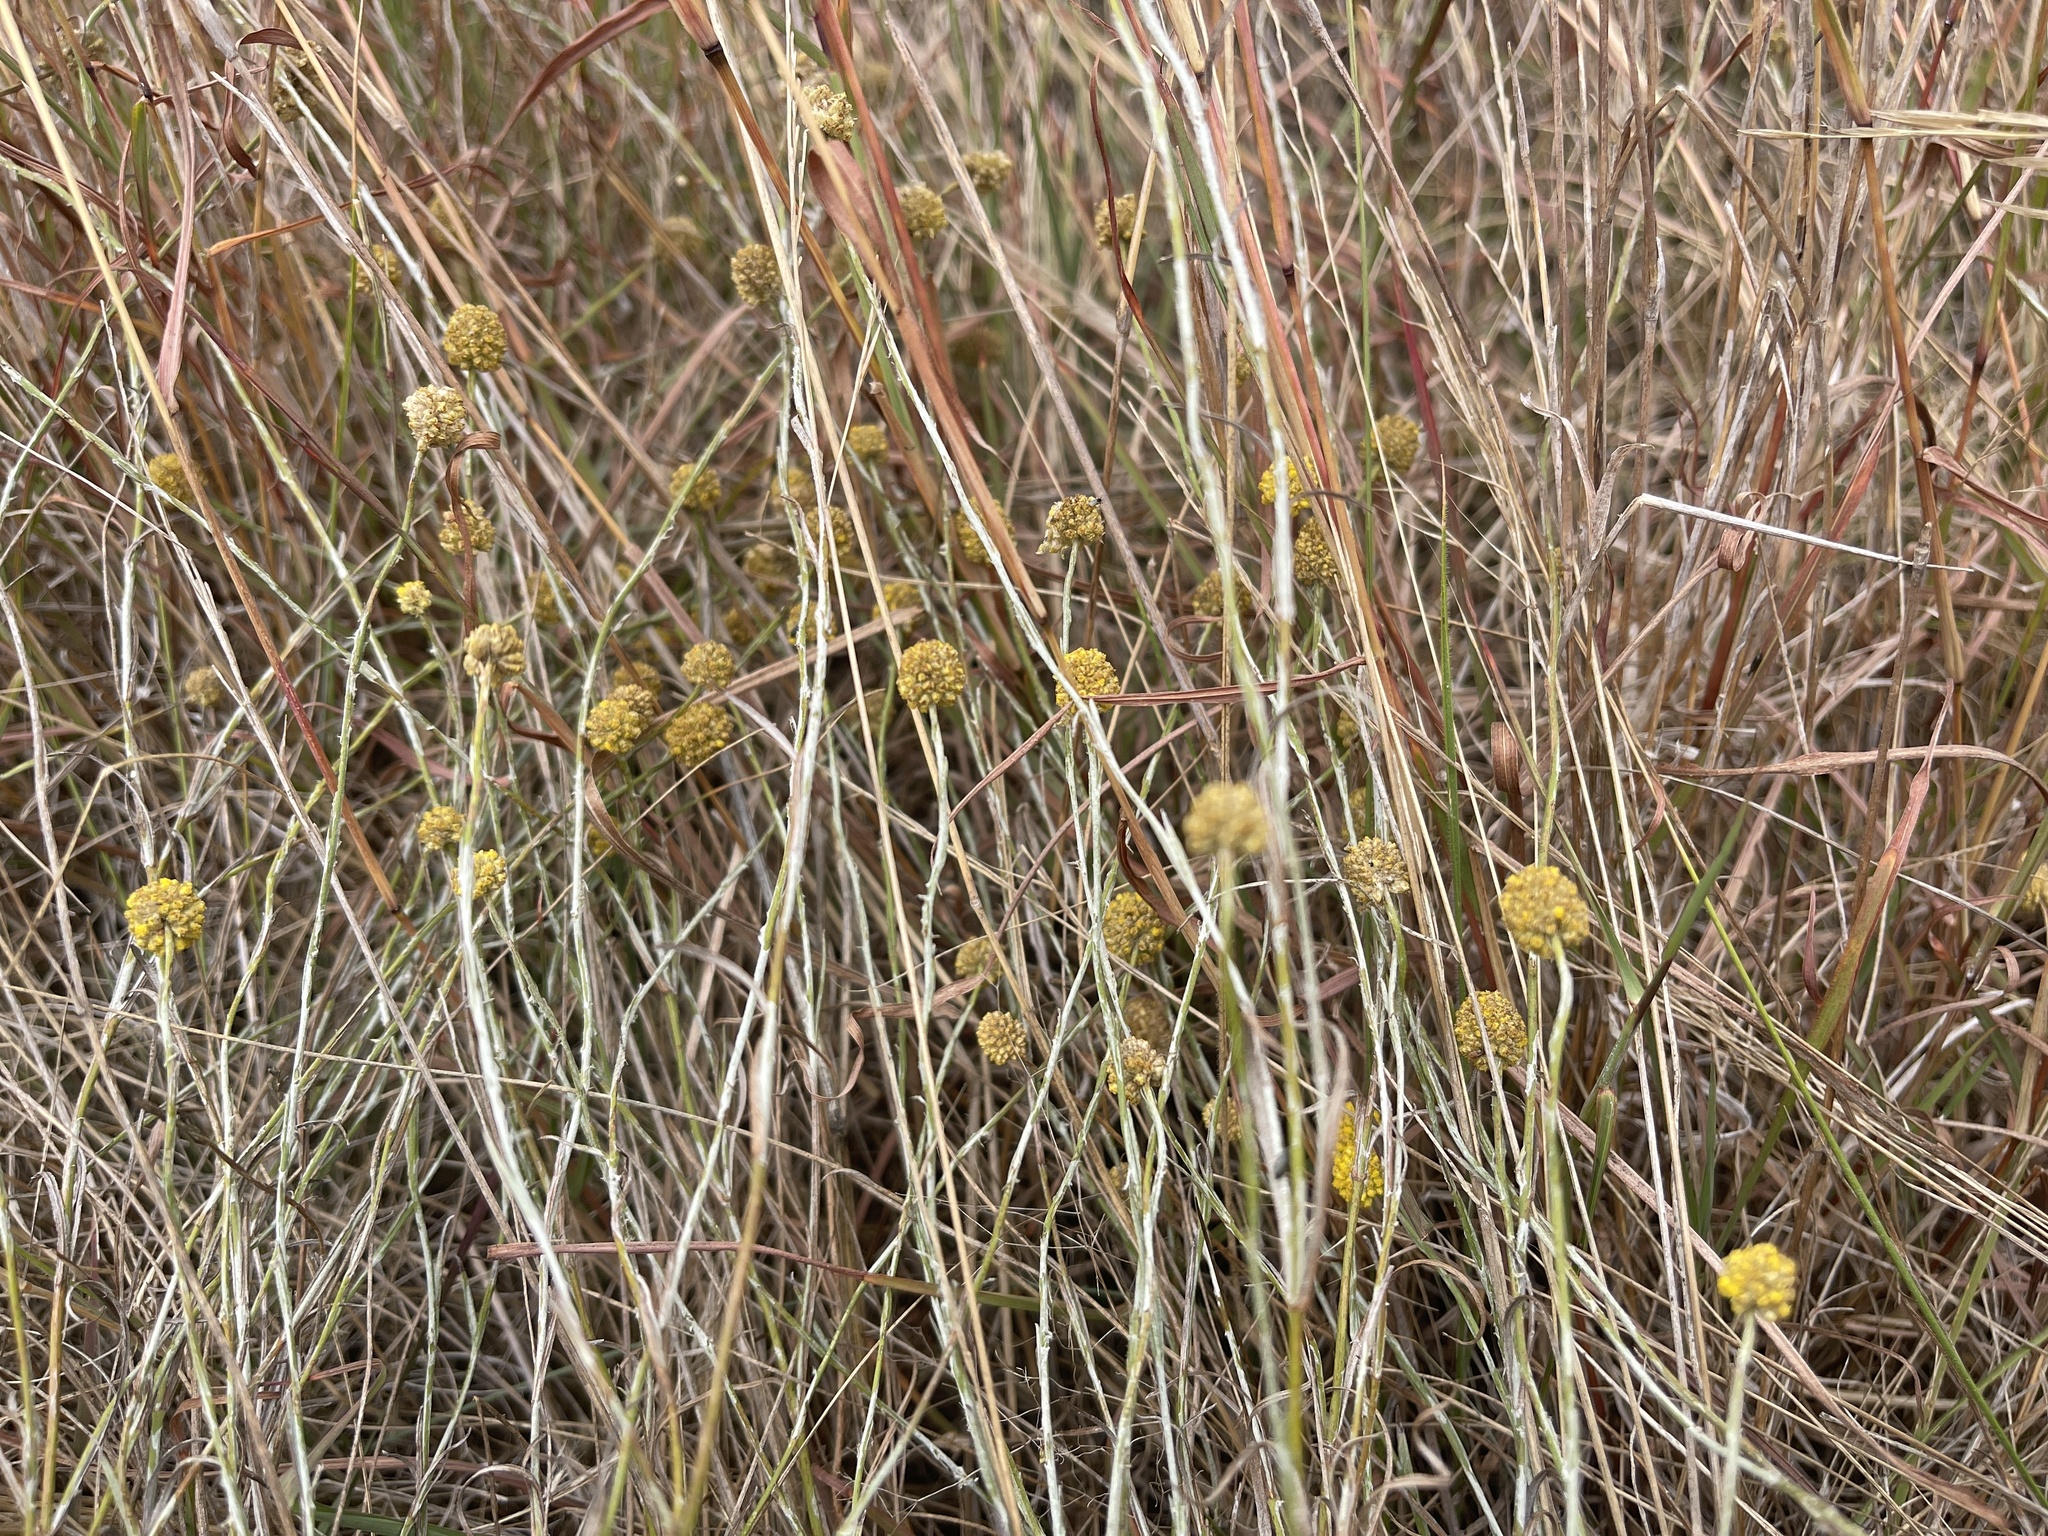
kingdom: Plantae
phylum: Tracheophyta
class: Magnoliopsida
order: Asterales
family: Asteraceae
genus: Calocephalus
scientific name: Calocephalus citreus
